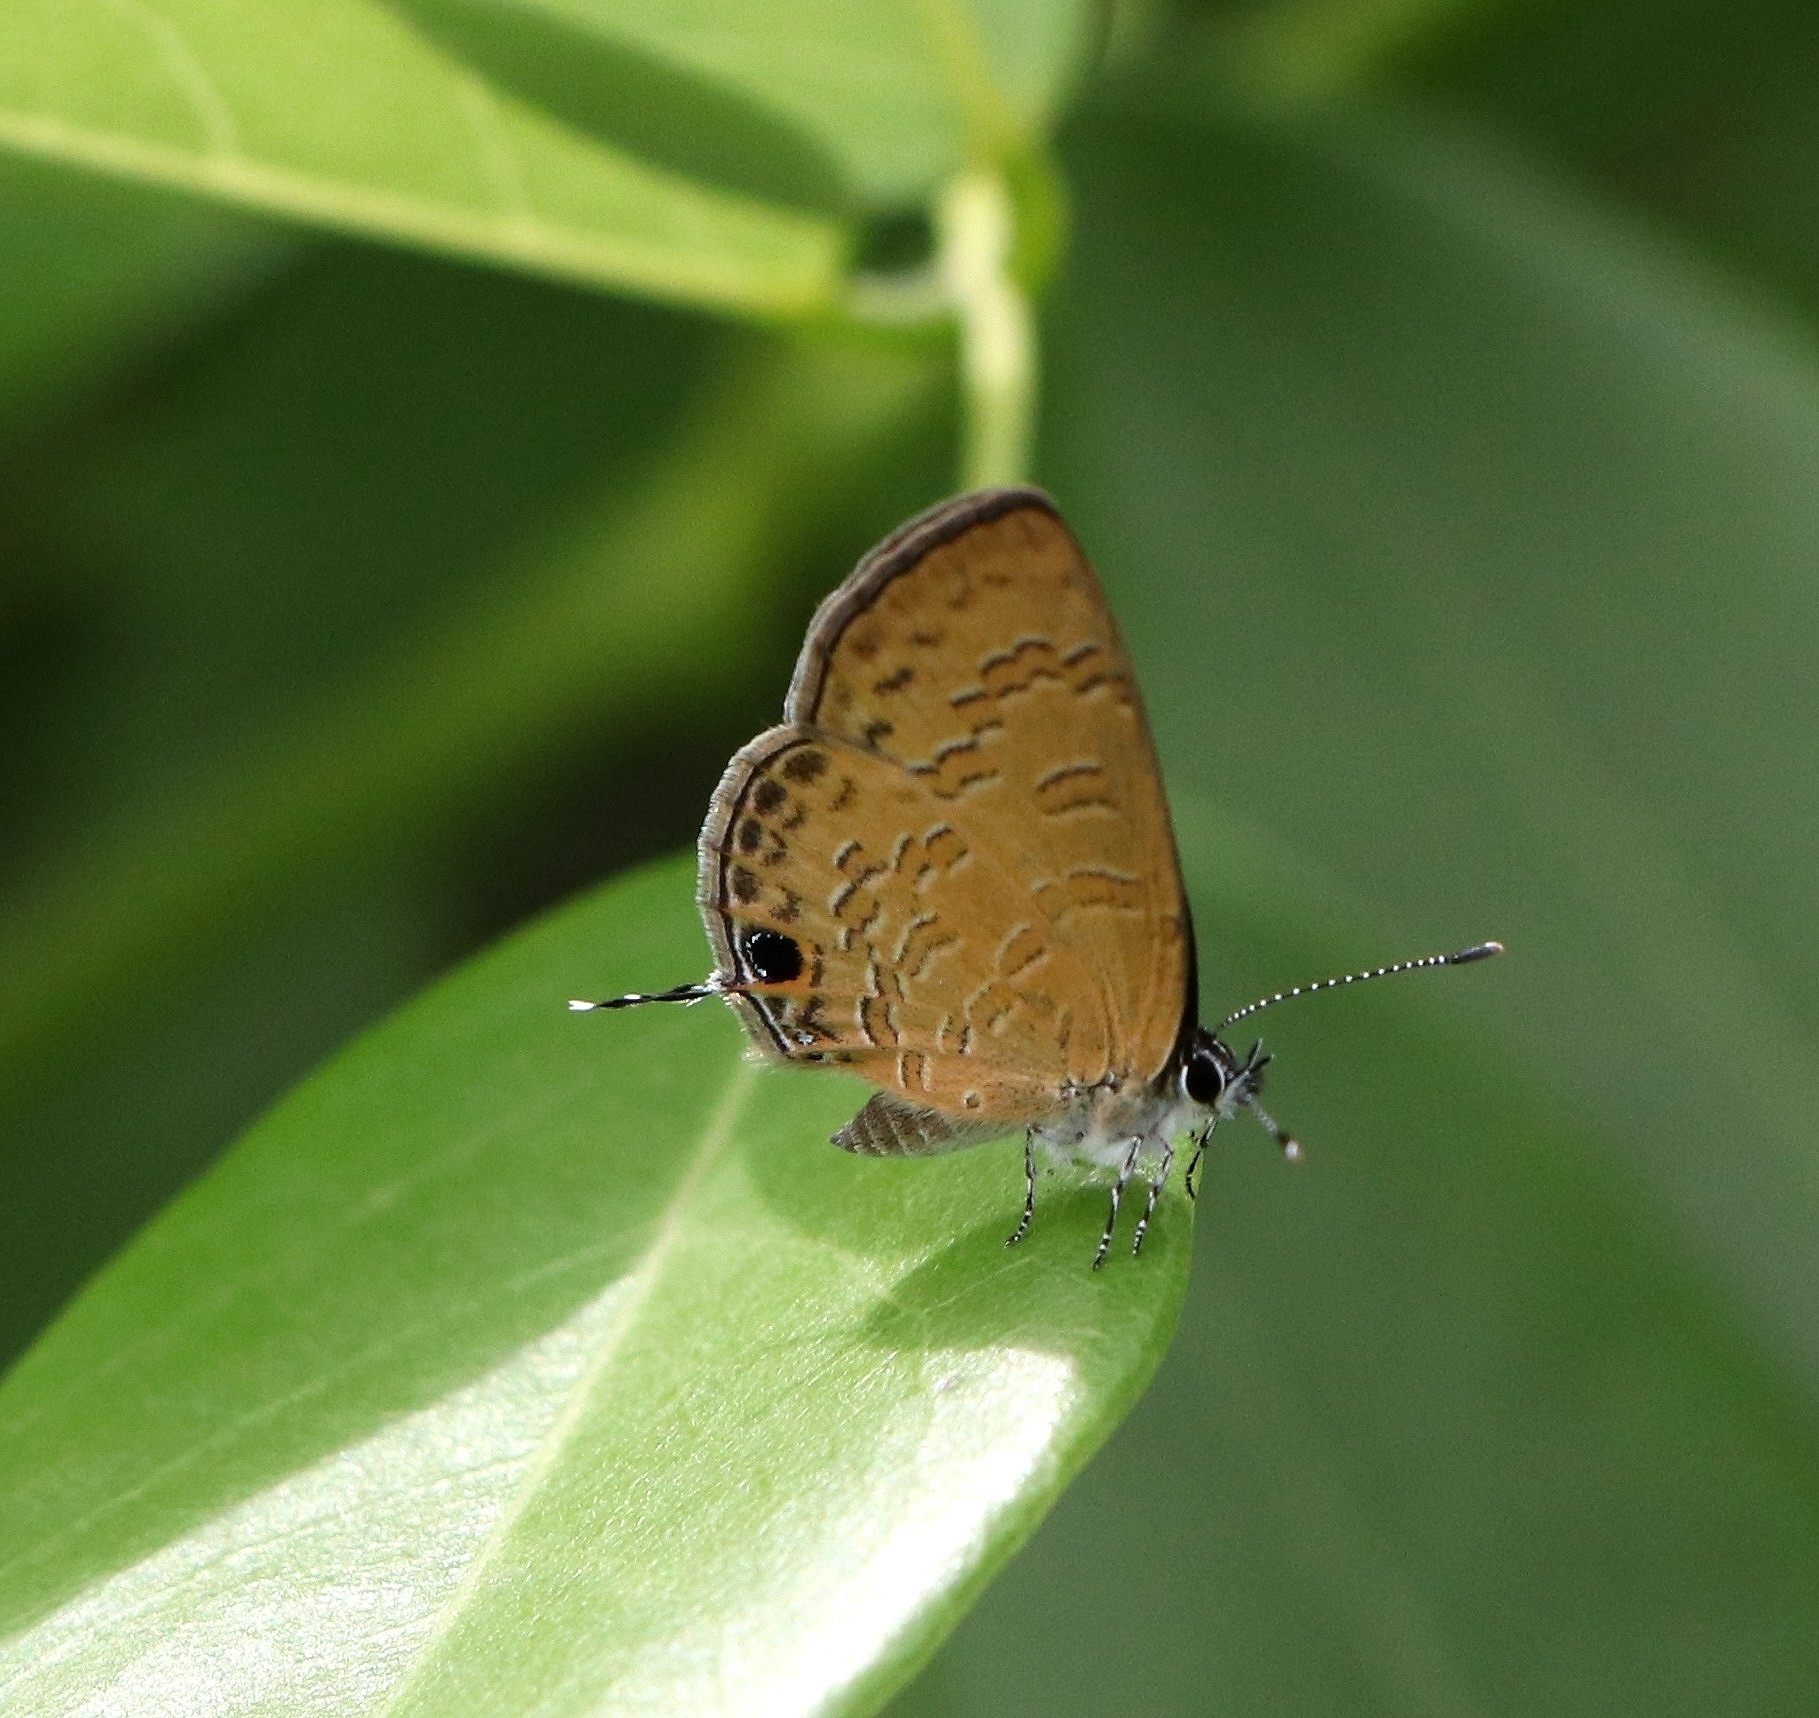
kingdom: Animalia
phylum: Arthropoda
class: Insecta
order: Lepidoptera
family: Lycaenidae
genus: Prosotas
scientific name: Prosotas nora
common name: Common line blue
